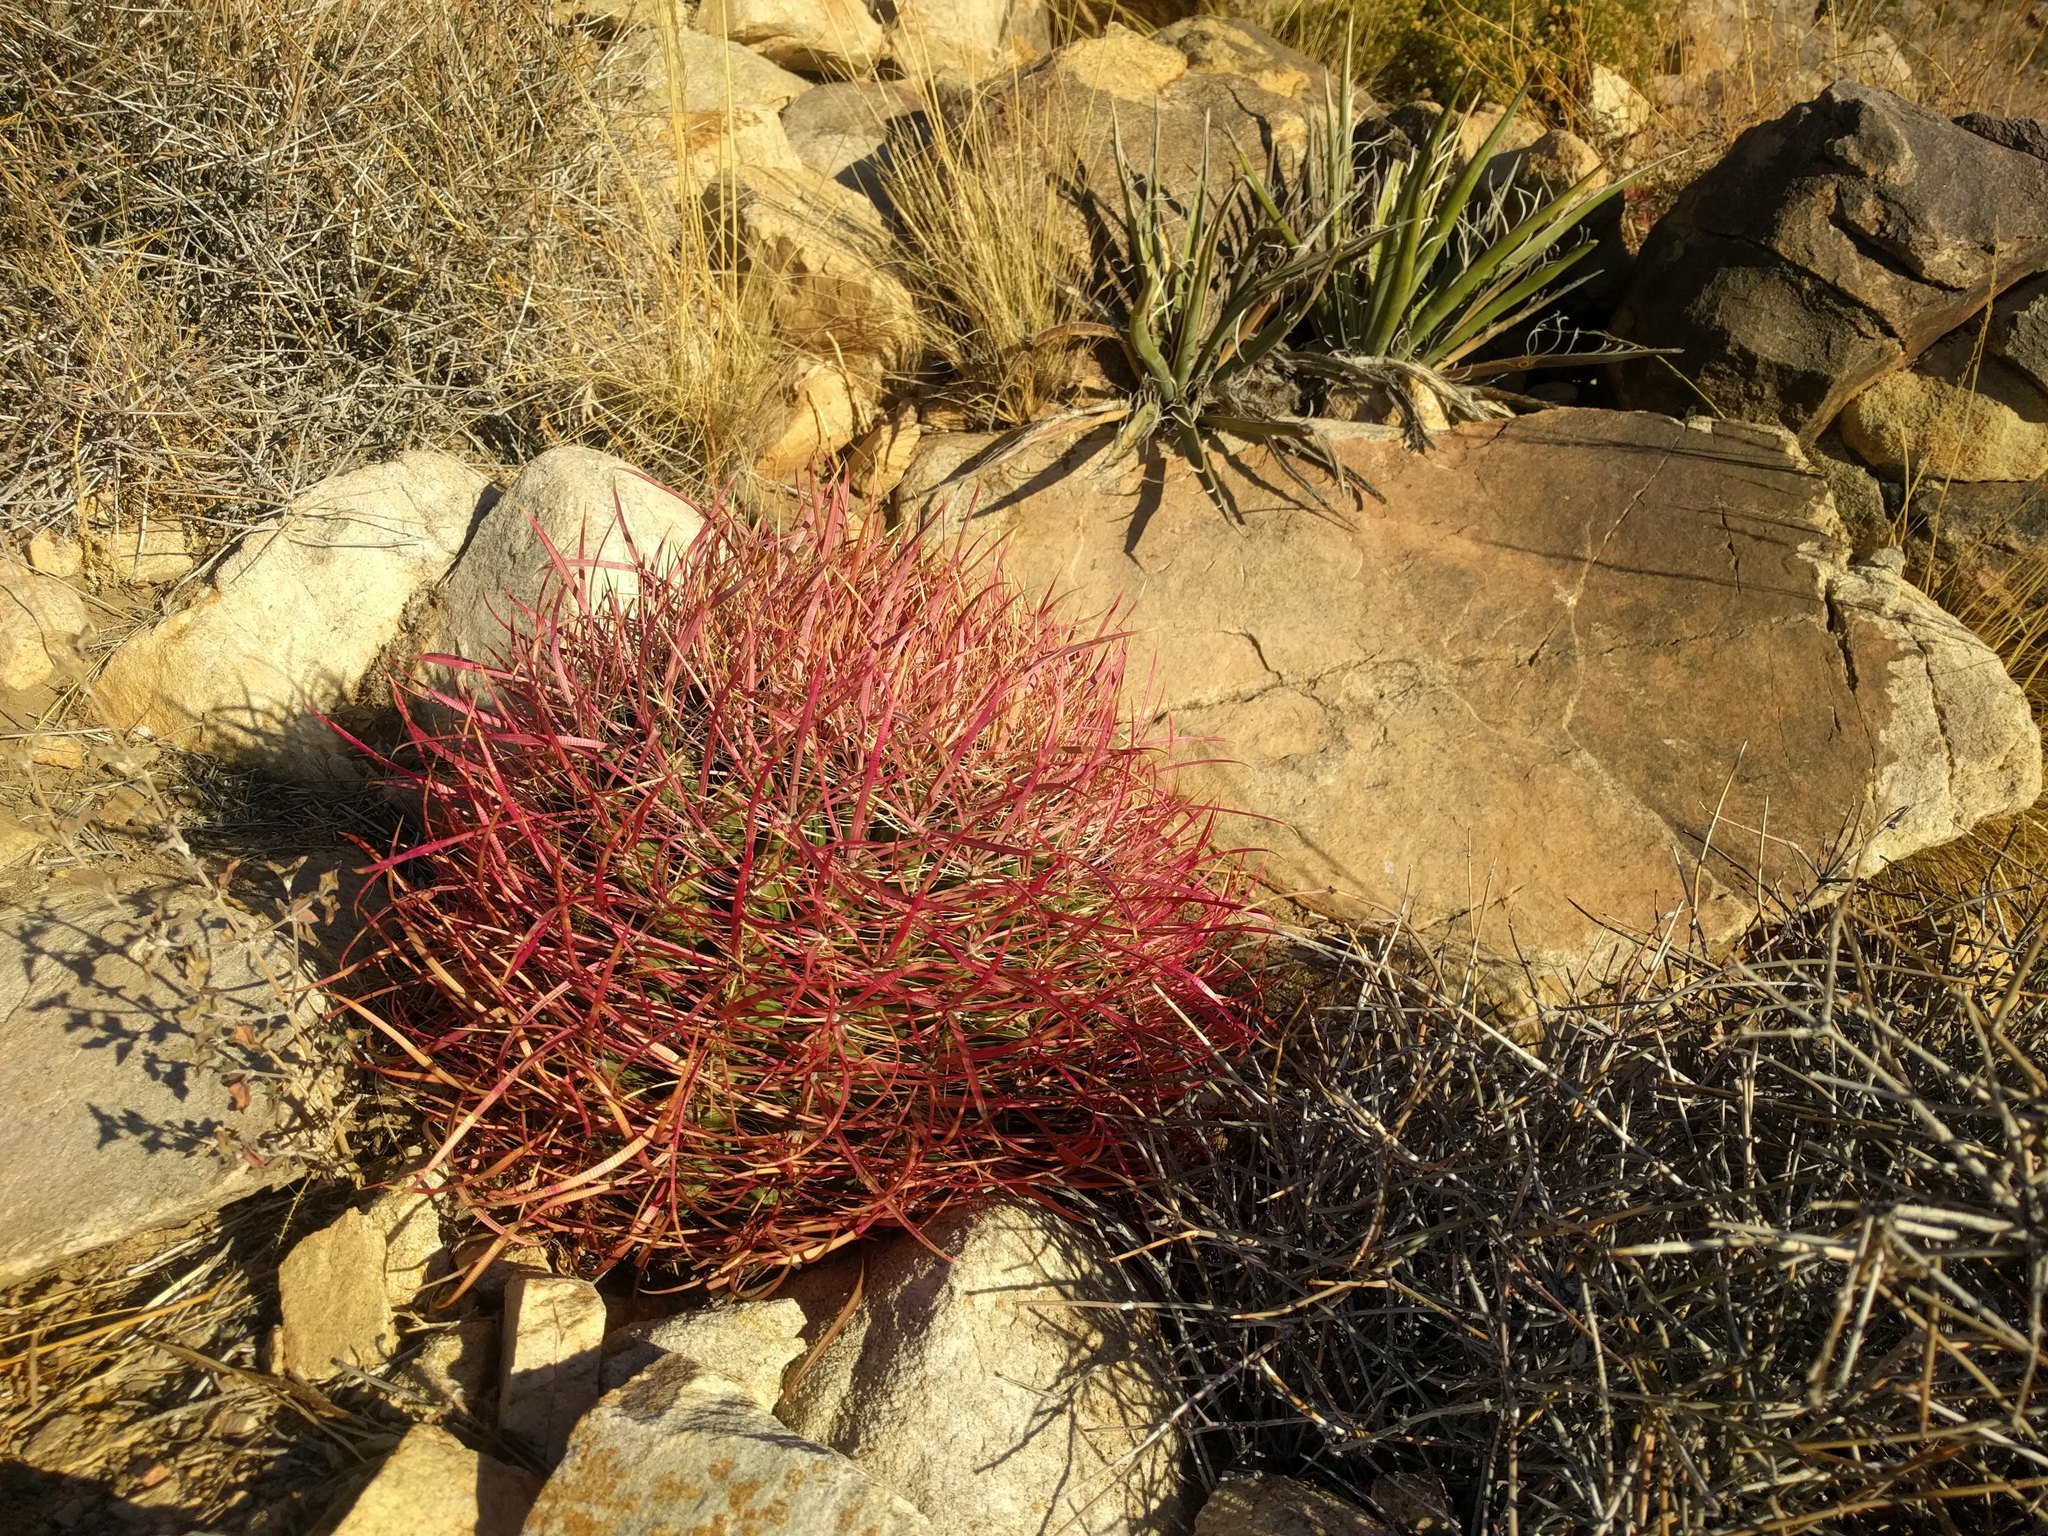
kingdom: Plantae
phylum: Tracheophyta
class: Magnoliopsida
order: Caryophyllales
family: Cactaceae
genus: Ferocactus
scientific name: Ferocactus cylindraceus
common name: California barrel cactus
